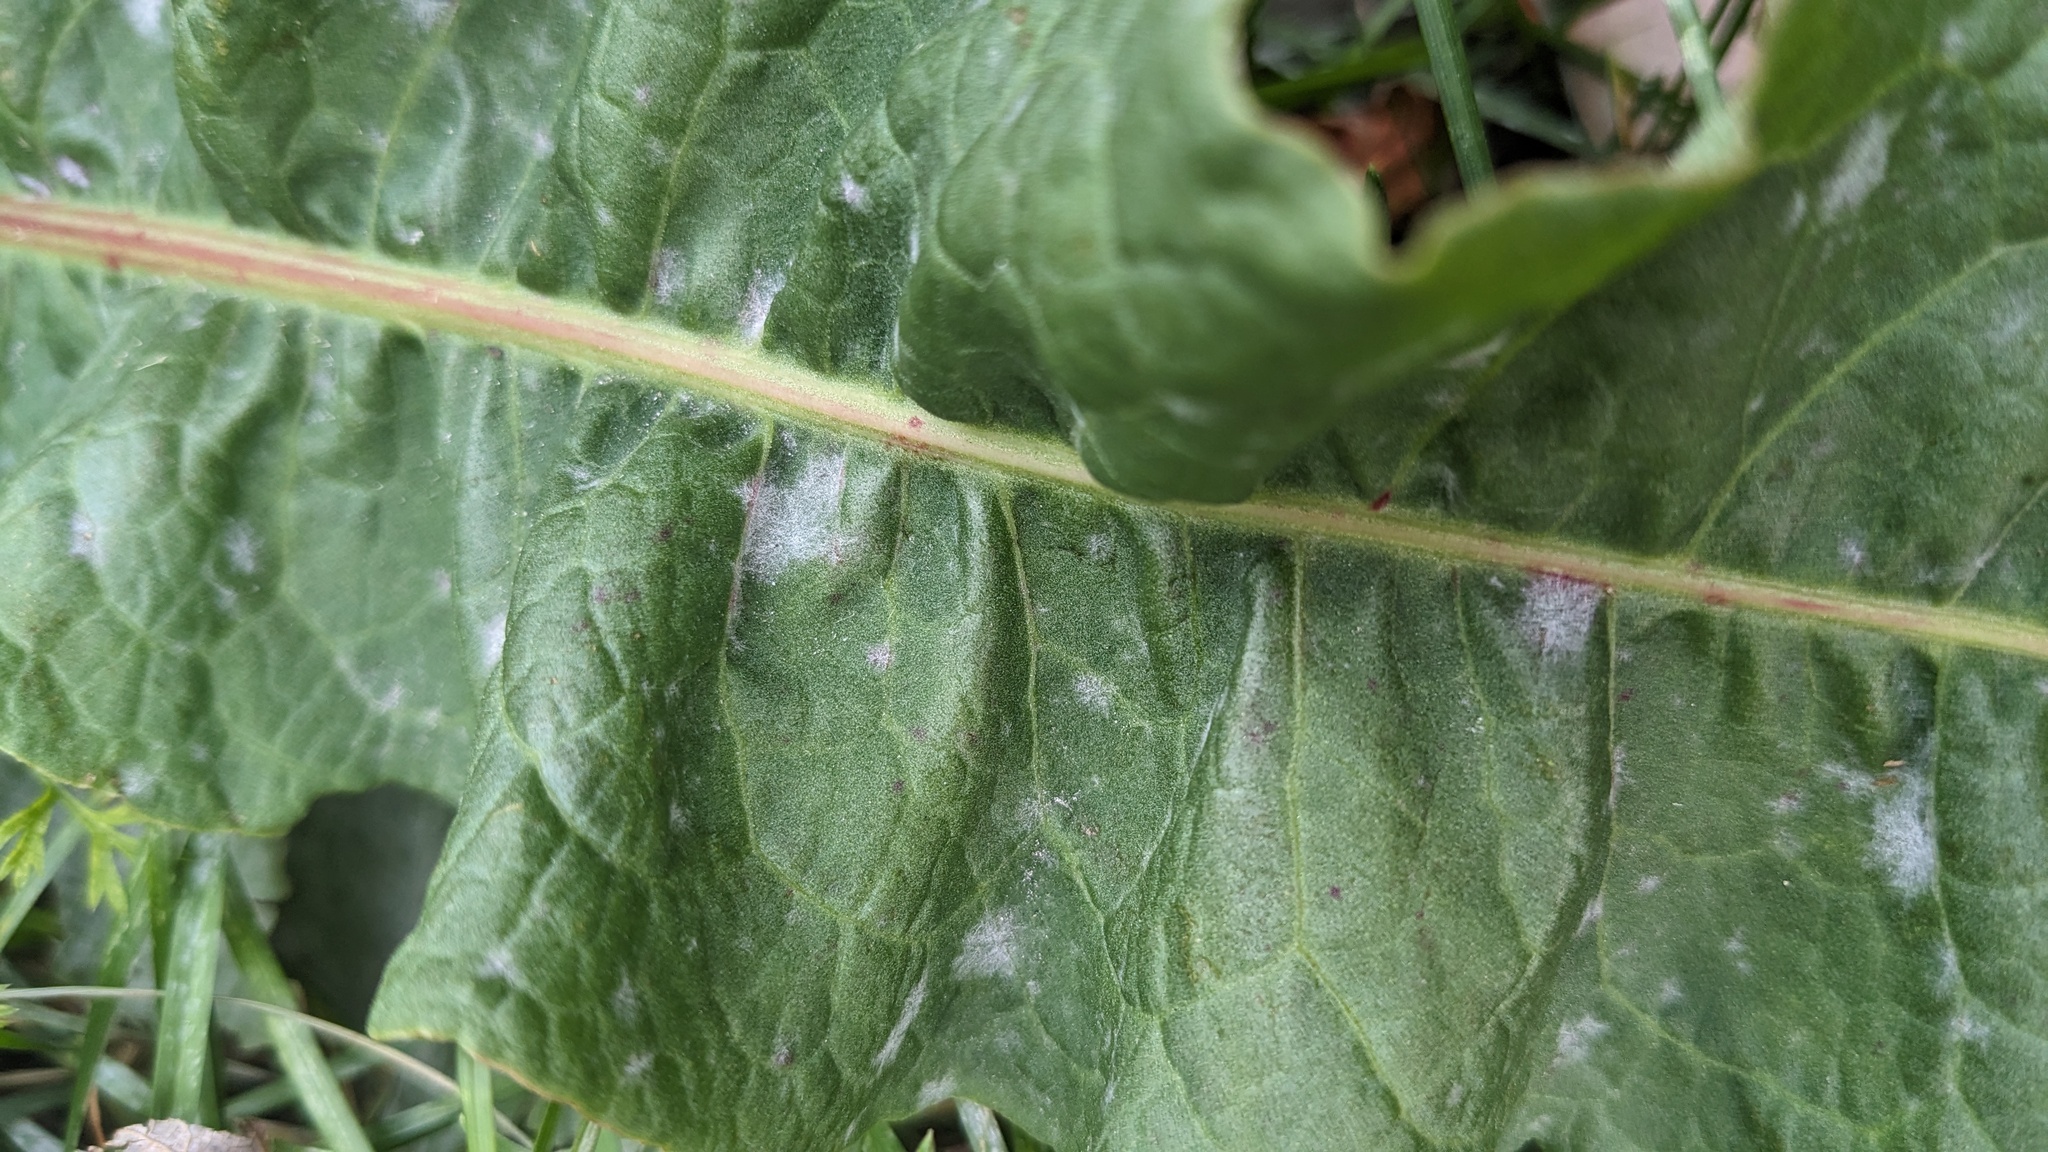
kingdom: Fungi
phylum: Ascomycota
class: Leotiomycetes
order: Helotiales
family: Erysiphaceae
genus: Erysiphe
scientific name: Erysiphe polygoni
